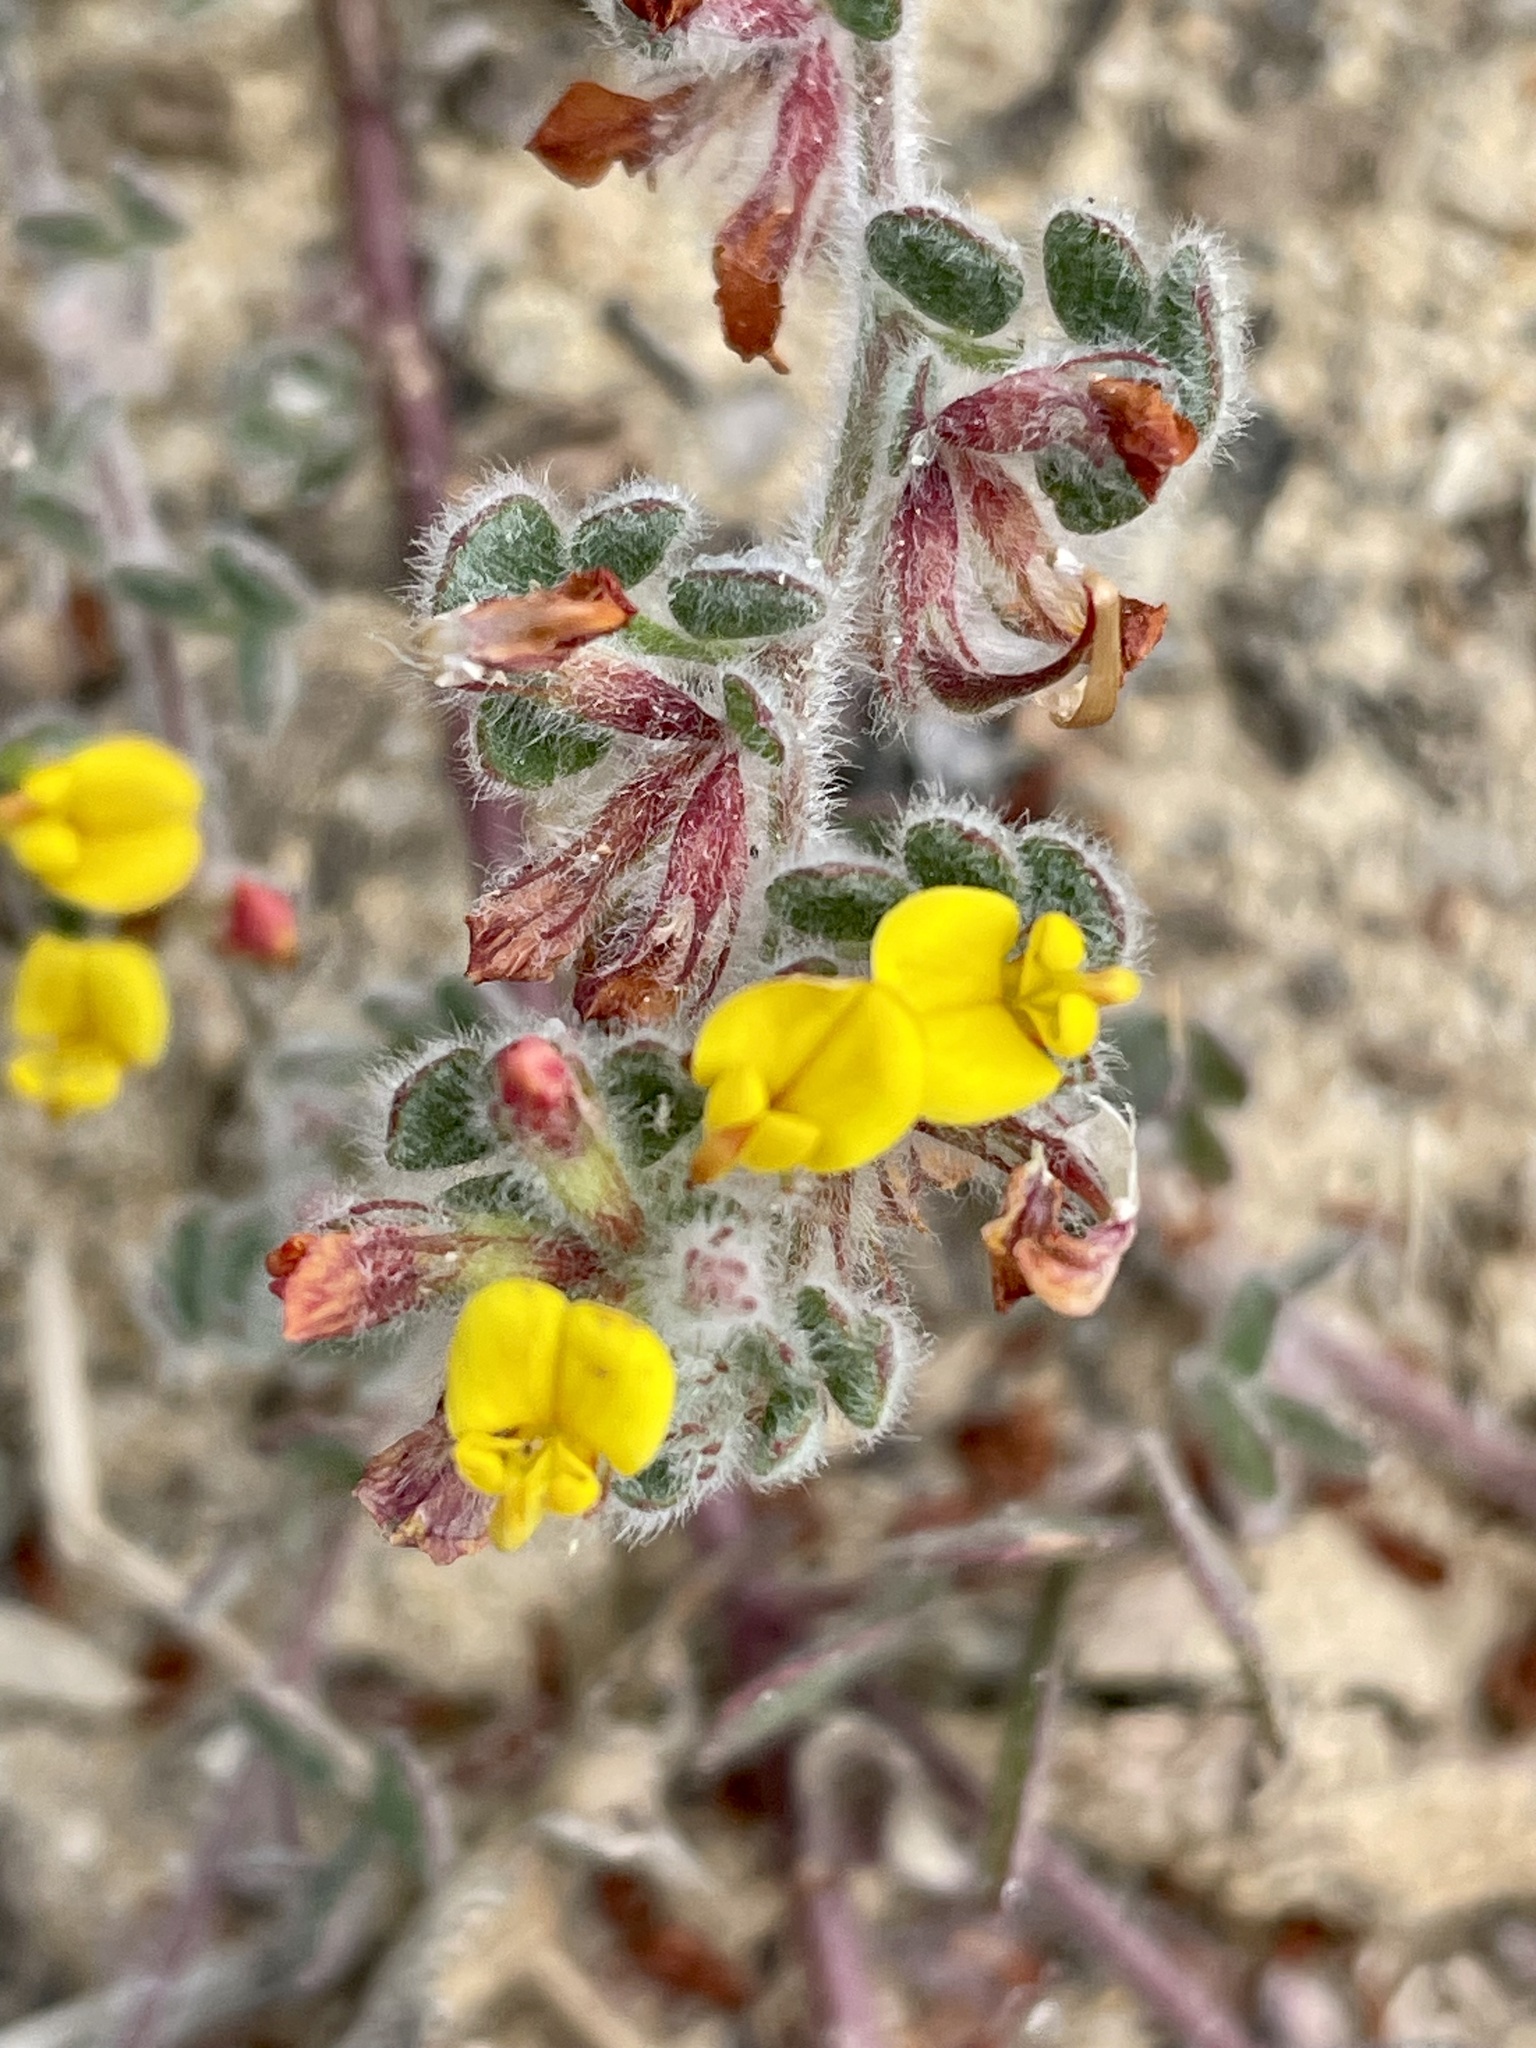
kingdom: Plantae
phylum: Tracheophyta
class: Magnoliopsida
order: Fabales
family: Fabaceae
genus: Acmispon
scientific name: Acmispon tomentosus
